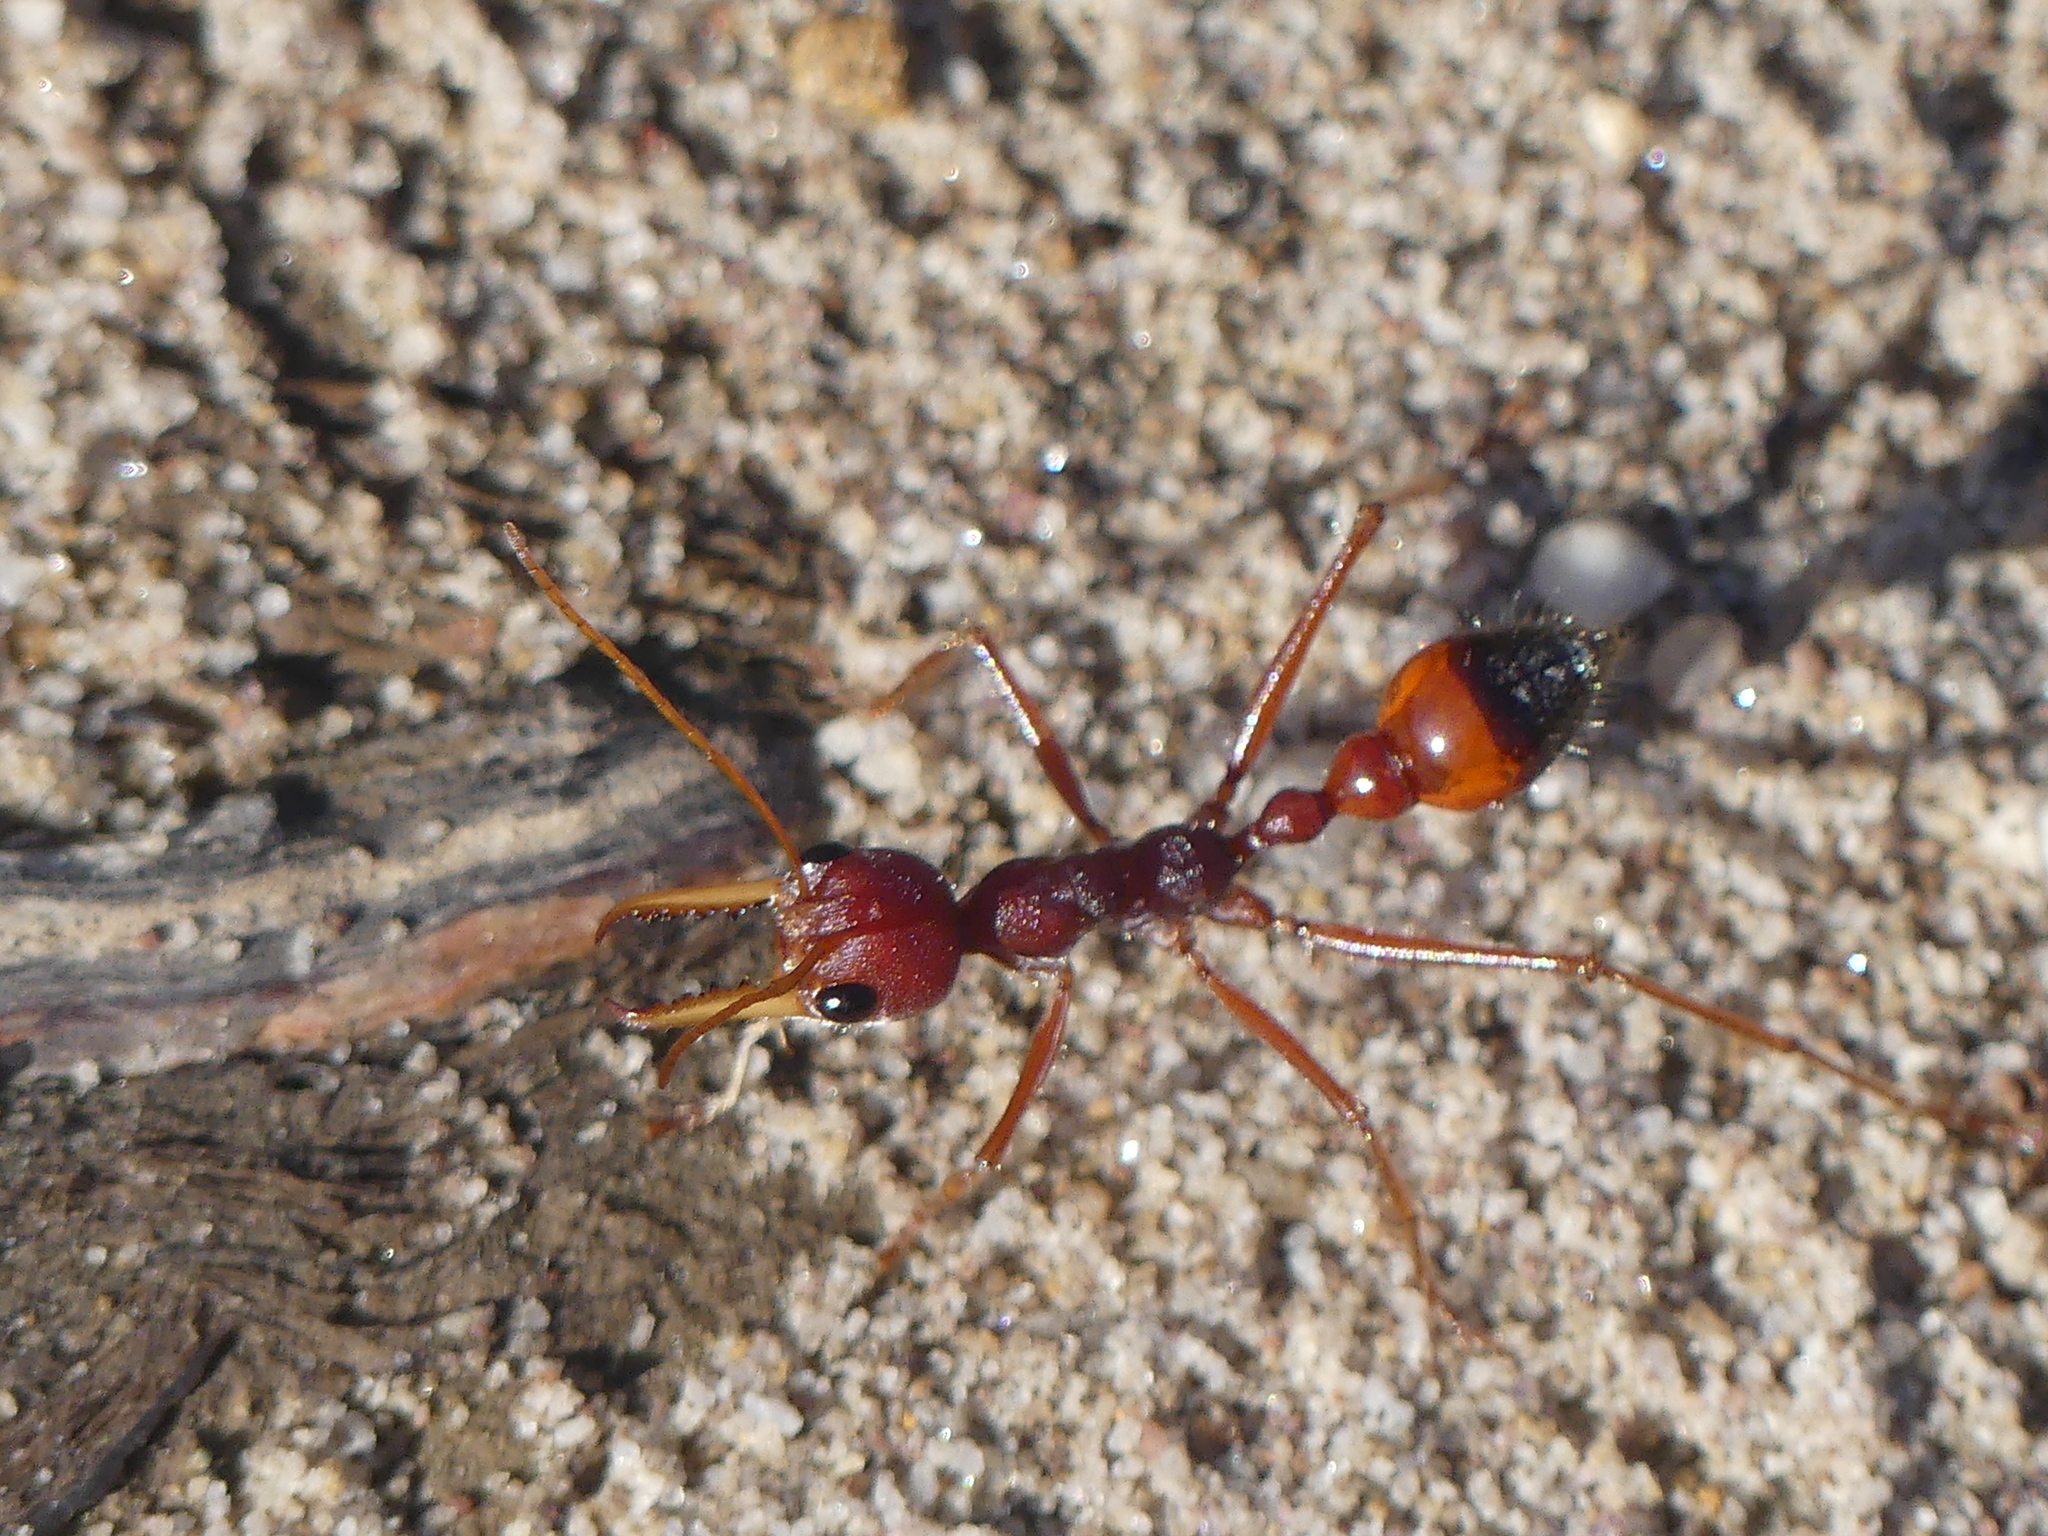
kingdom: Animalia
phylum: Arthropoda
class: Insecta
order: Hymenoptera
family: Formicidae
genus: Myrmecia
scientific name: Myrmecia gulosa
